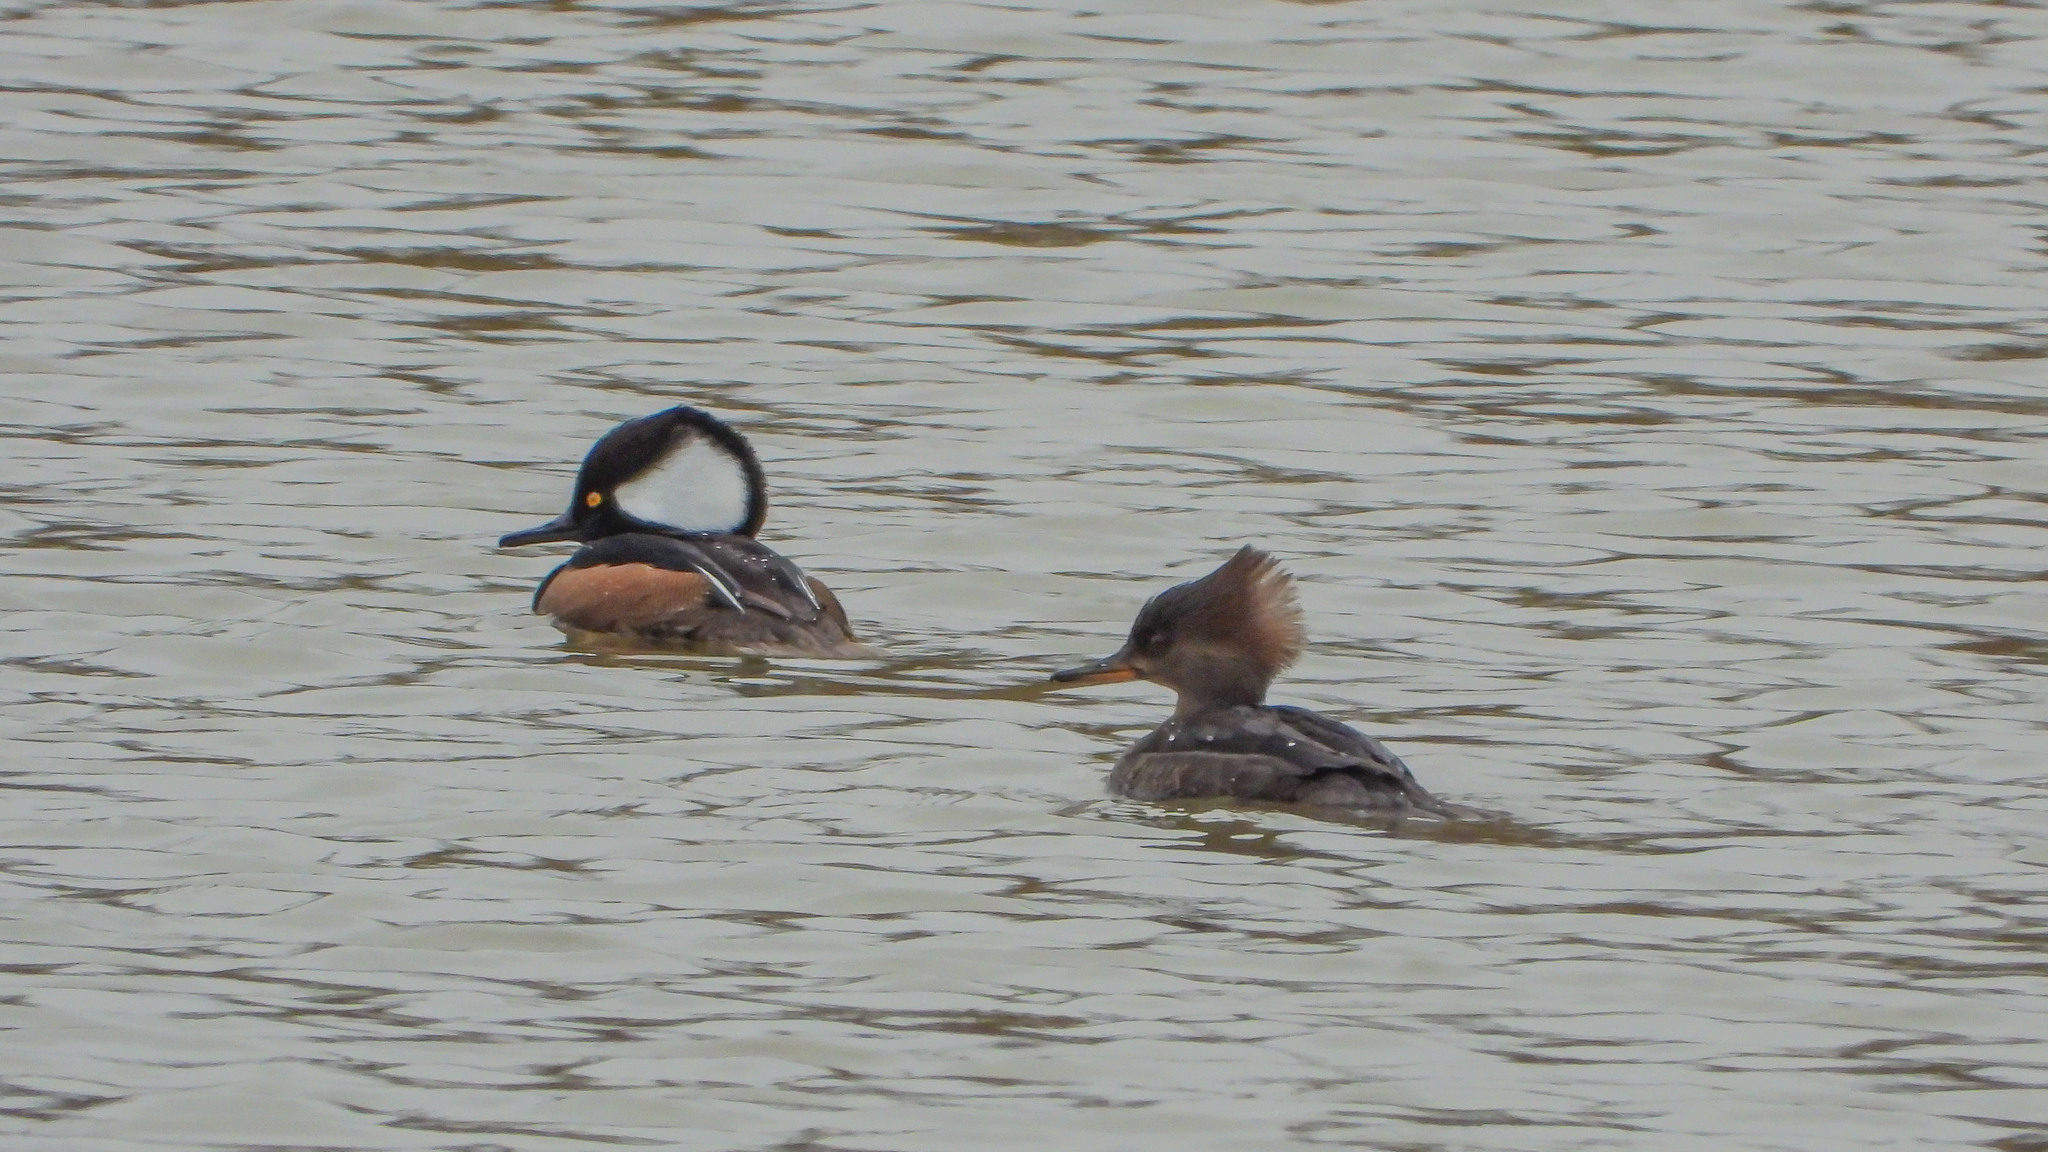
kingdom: Animalia
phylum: Chordata
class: Aves
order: Anseriformes
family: Anatidae
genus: Lophodytes
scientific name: Lophodytes cucullatus
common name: Hooded merganser
